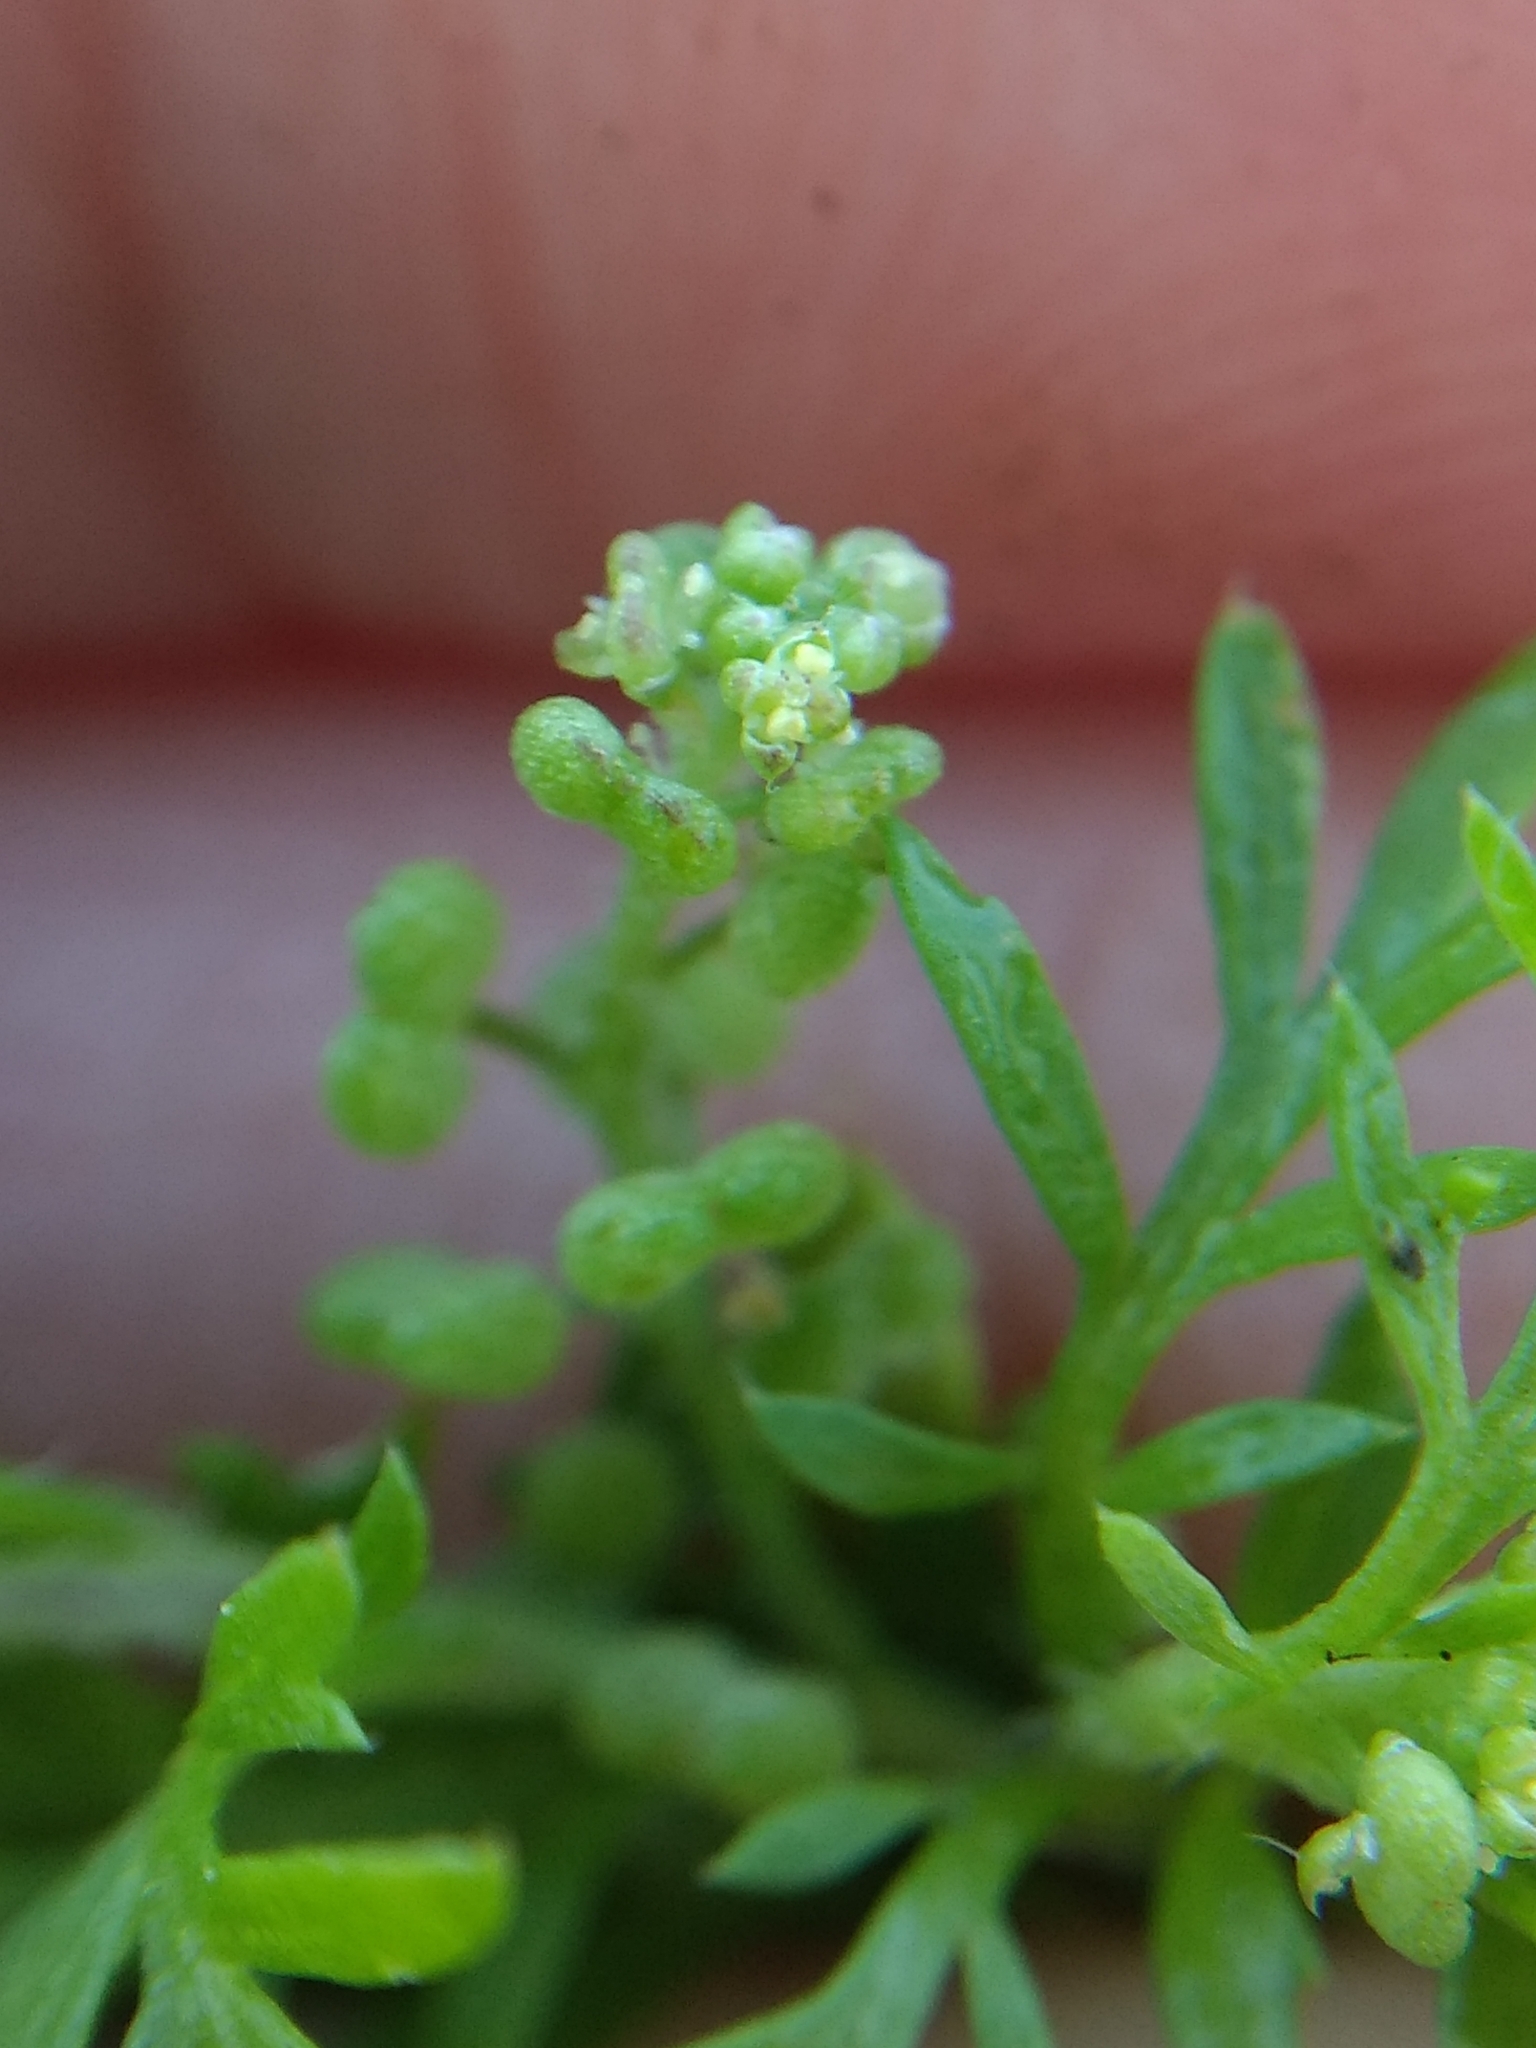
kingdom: Plantae
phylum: Tracheophyta
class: Magnoliopsida
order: Brassicales
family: Brassicaceae
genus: Lepidium
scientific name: Lepidium didymum
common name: Lesser swinecress
